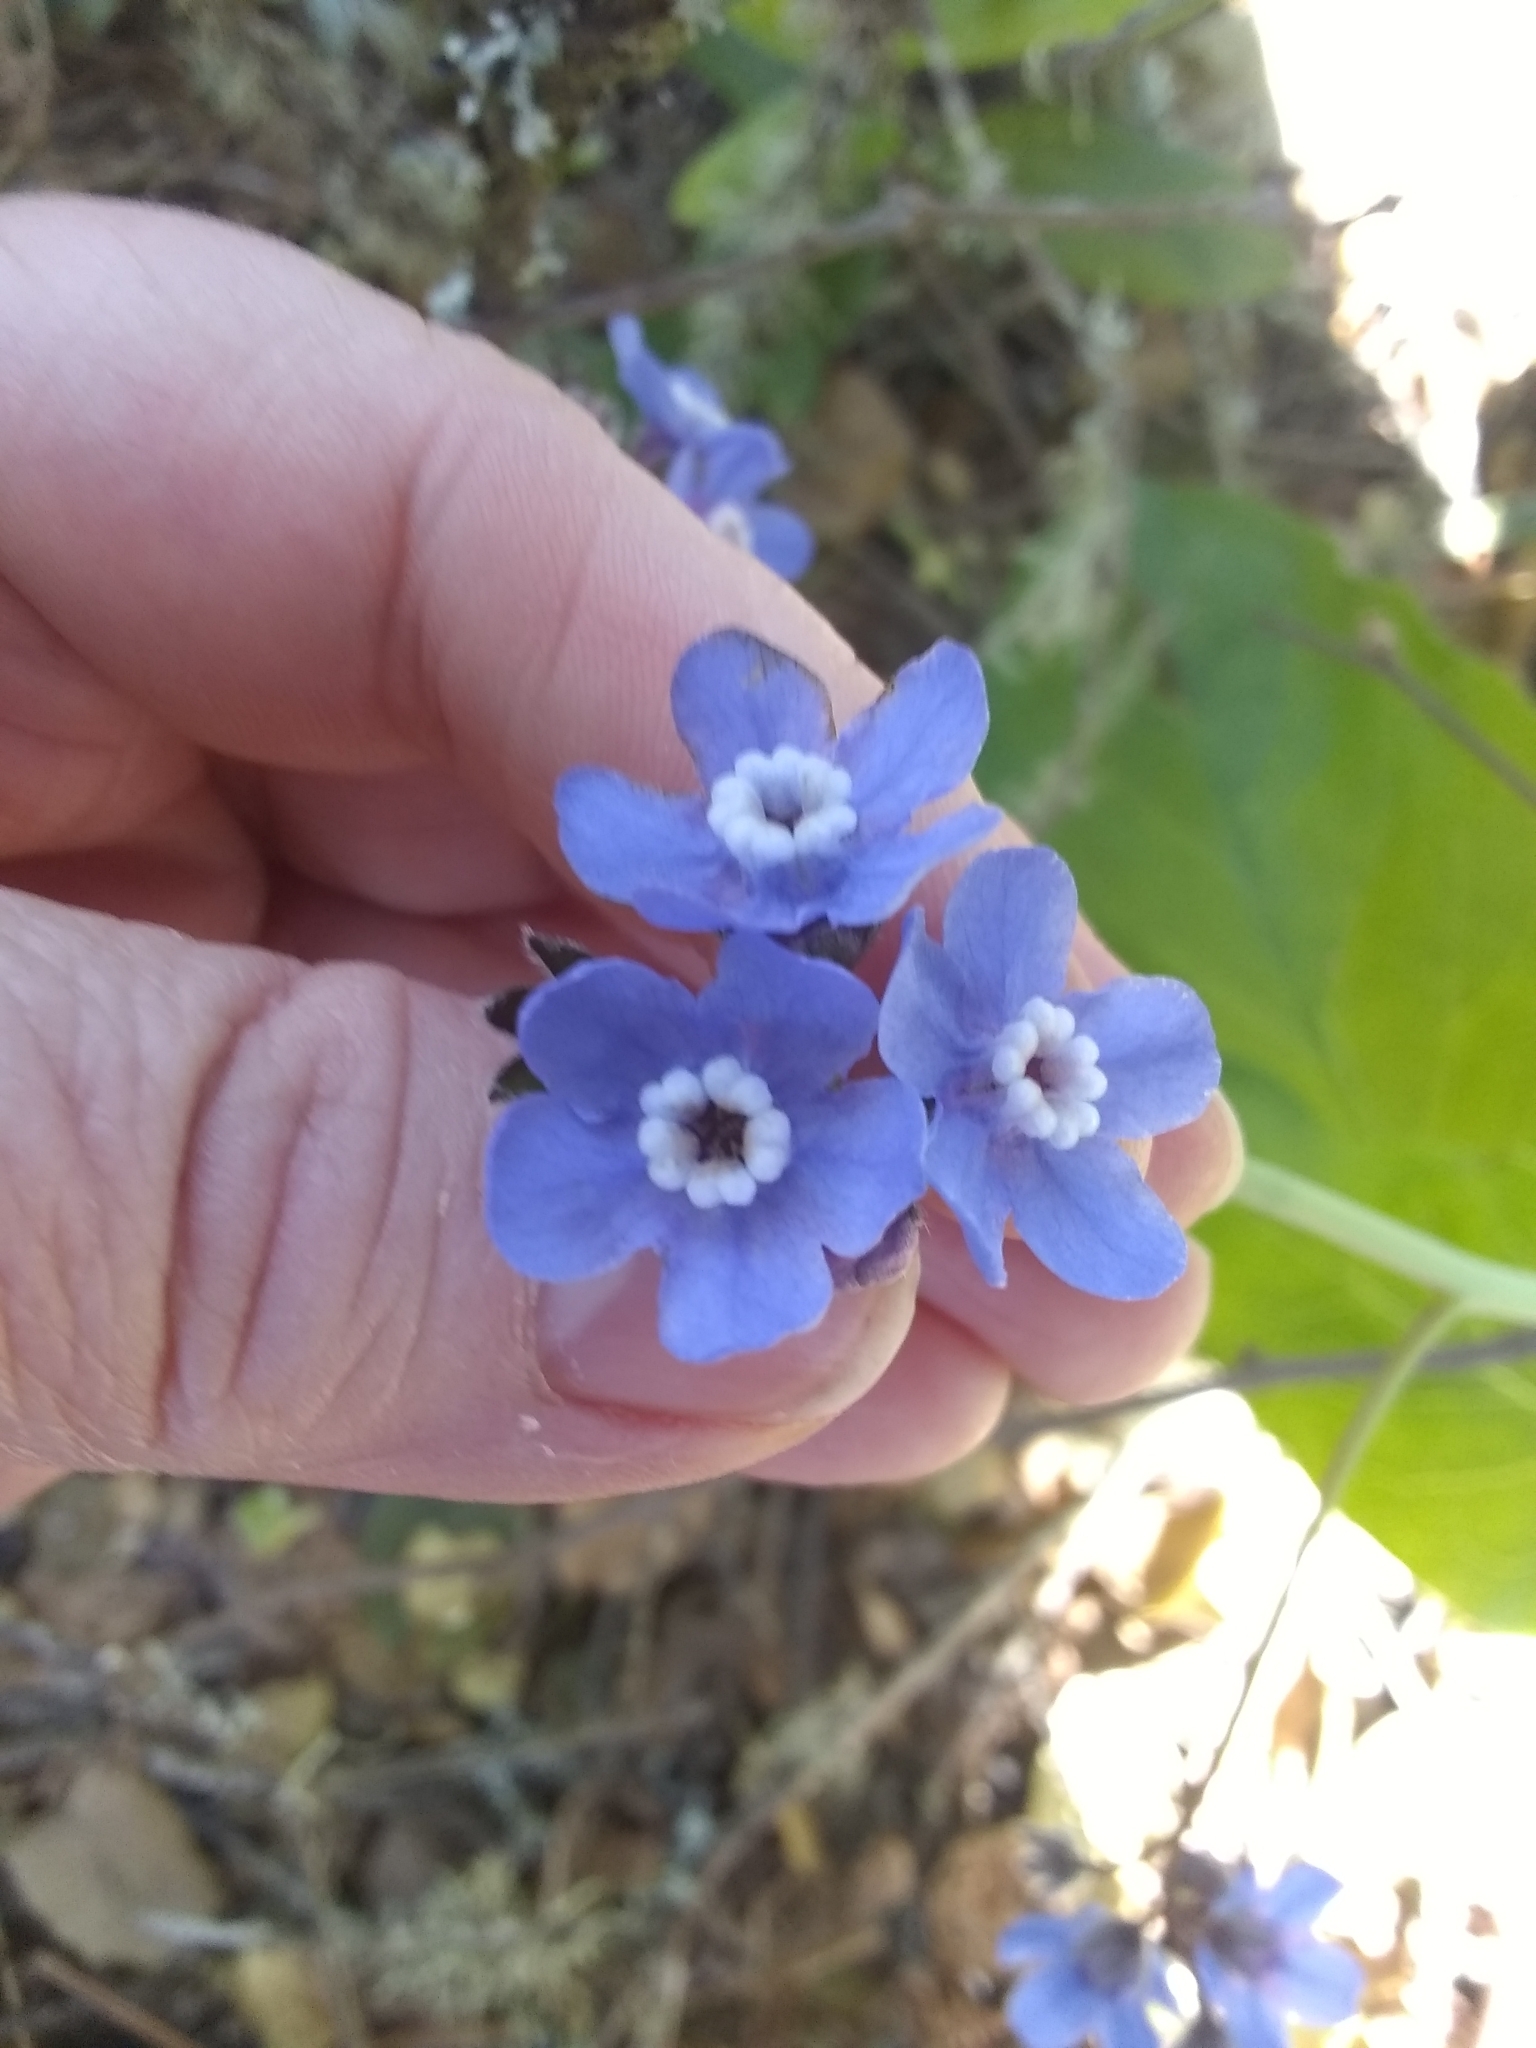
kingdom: Plantae
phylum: Tracheophyta
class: Magnoliopsida
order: Boraginales
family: Boraginaceae
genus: Adelinia
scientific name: Adelinia grande
